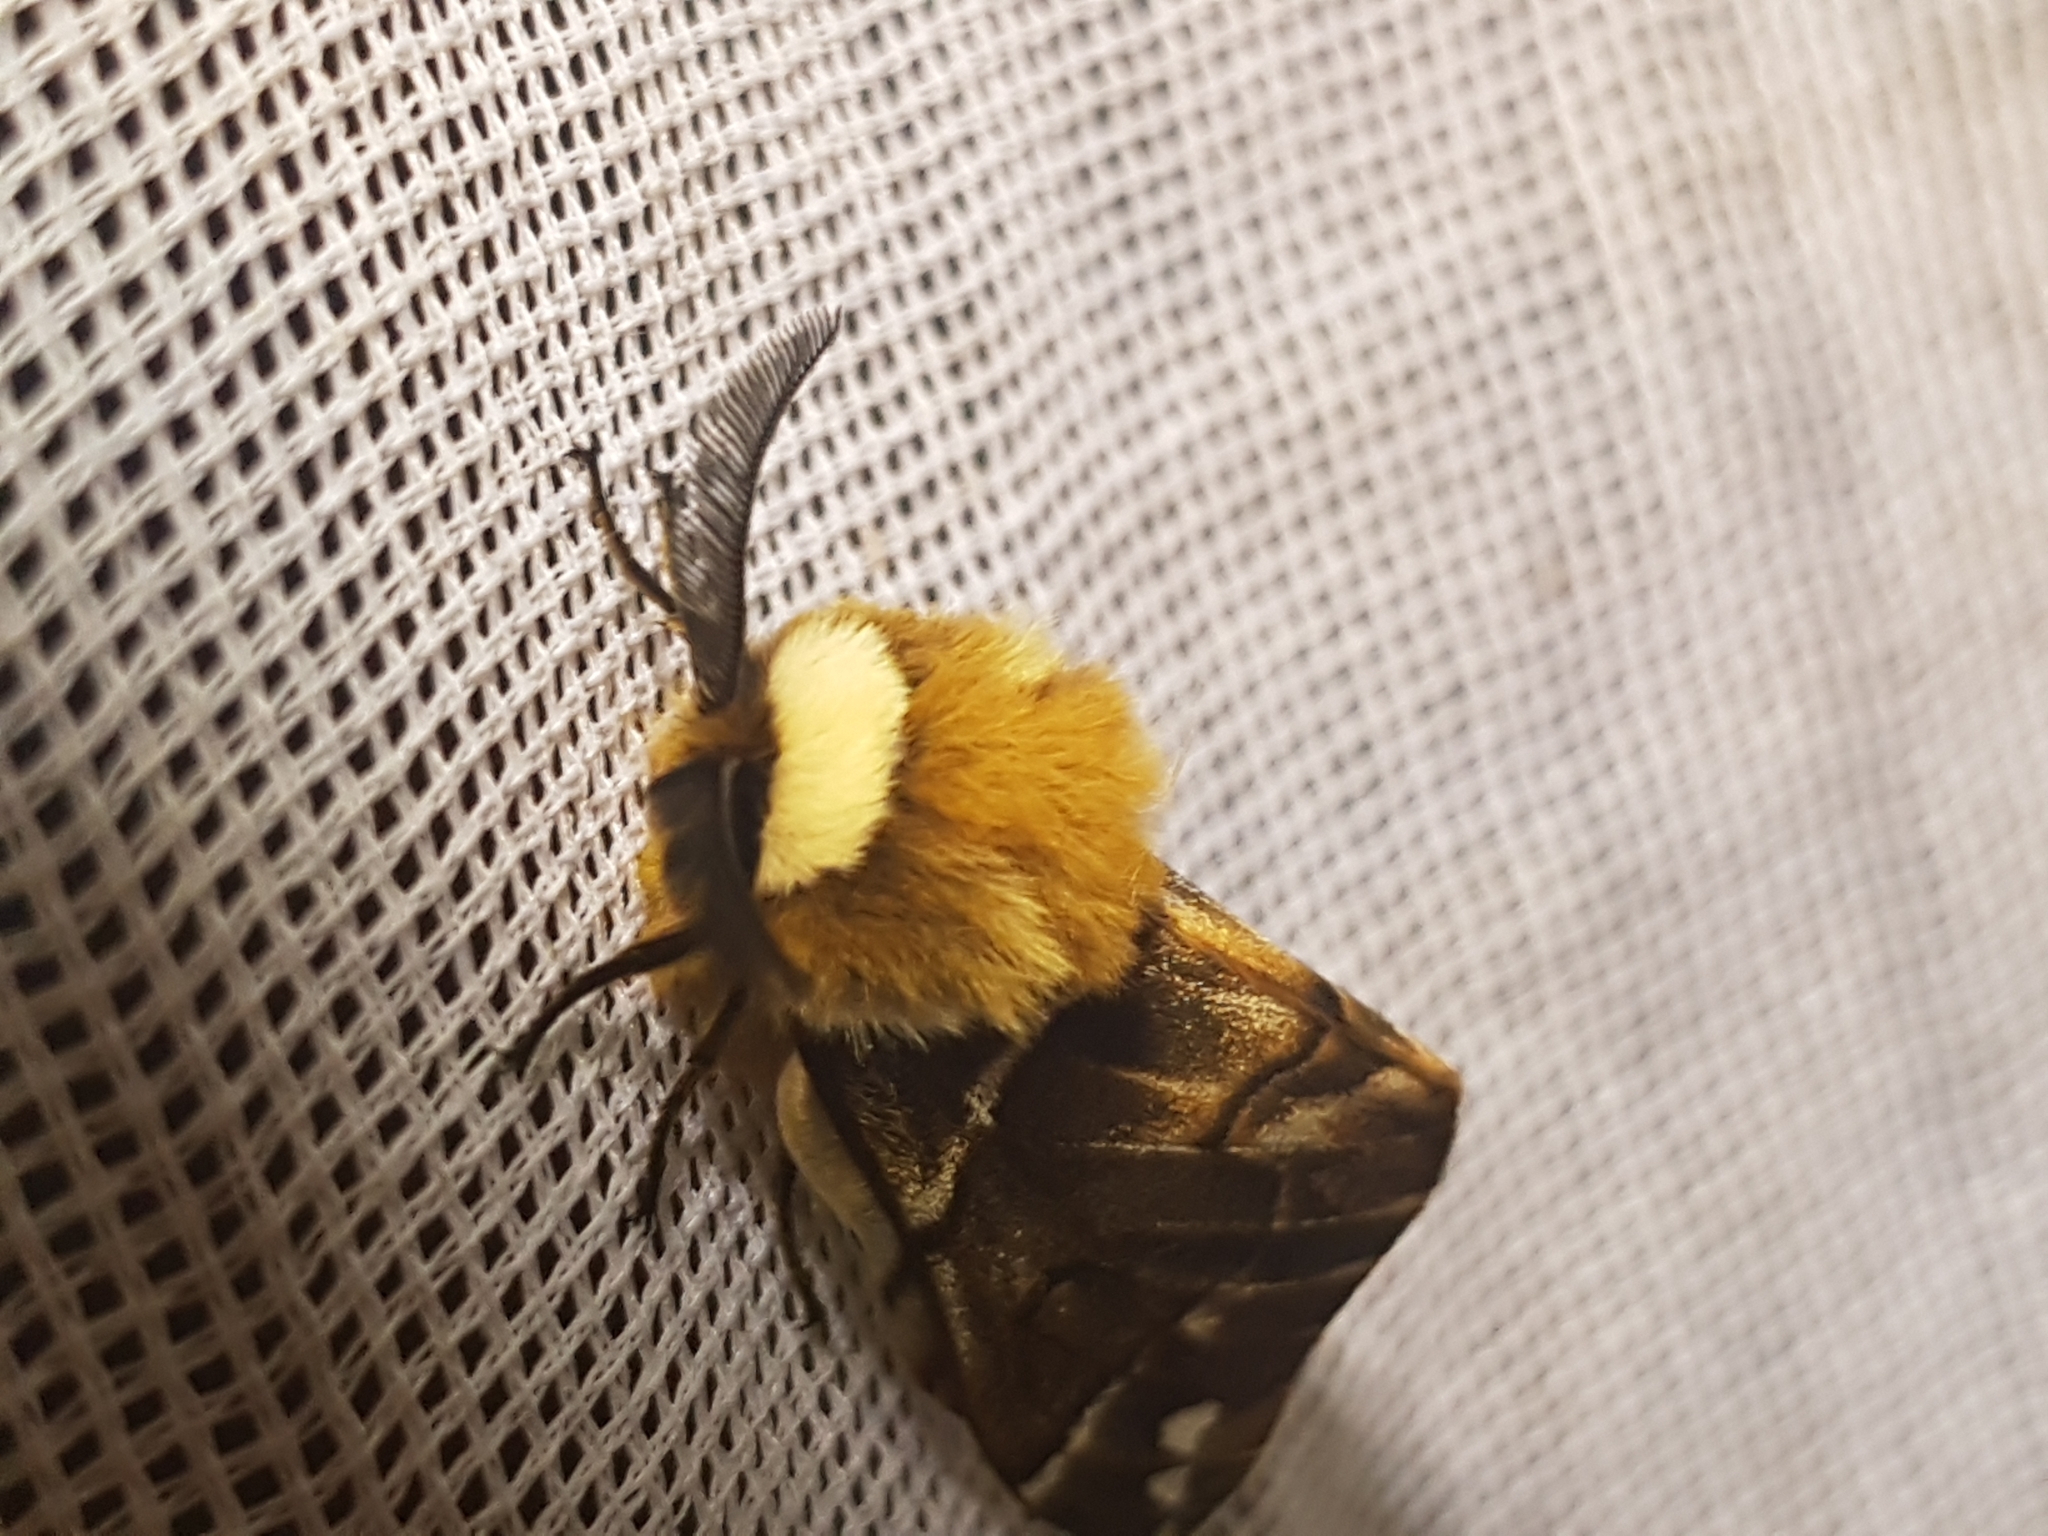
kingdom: Animalia
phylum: Arthropoda
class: Insecta
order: Lepidoptera
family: Endromidae
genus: Endromis
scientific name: Endromis versicolora
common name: Kentish glory
